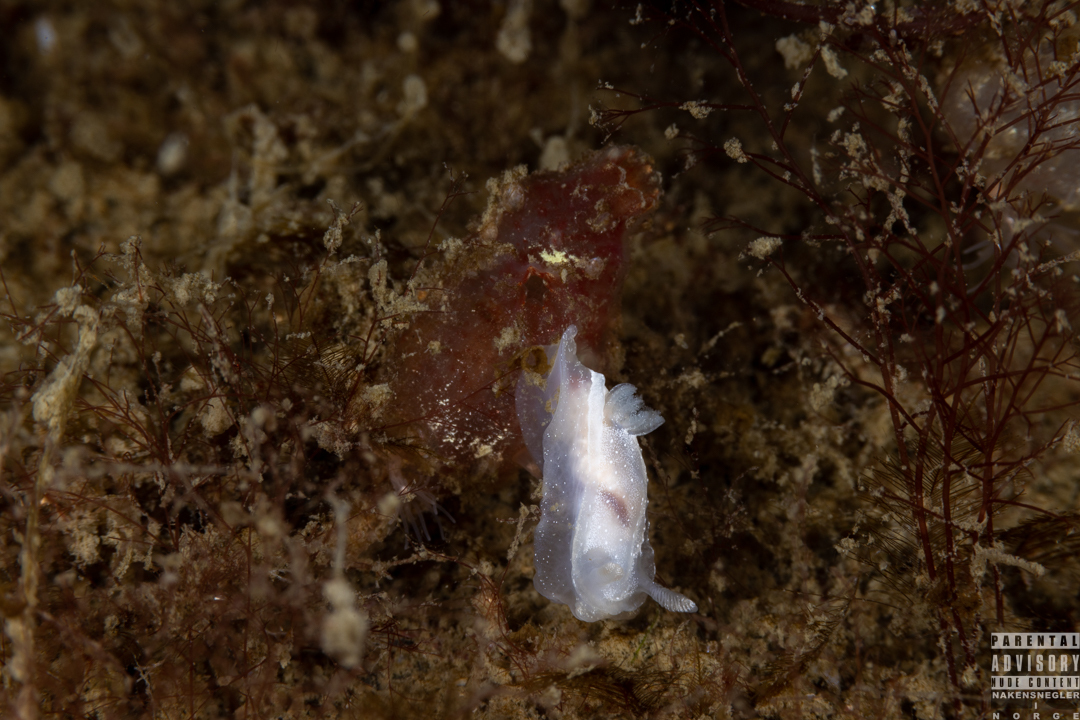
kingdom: Animalia
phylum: Mollusca
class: Gastropoda
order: Nudibranchia
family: Goniodorididae
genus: Okenia
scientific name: Okenia
